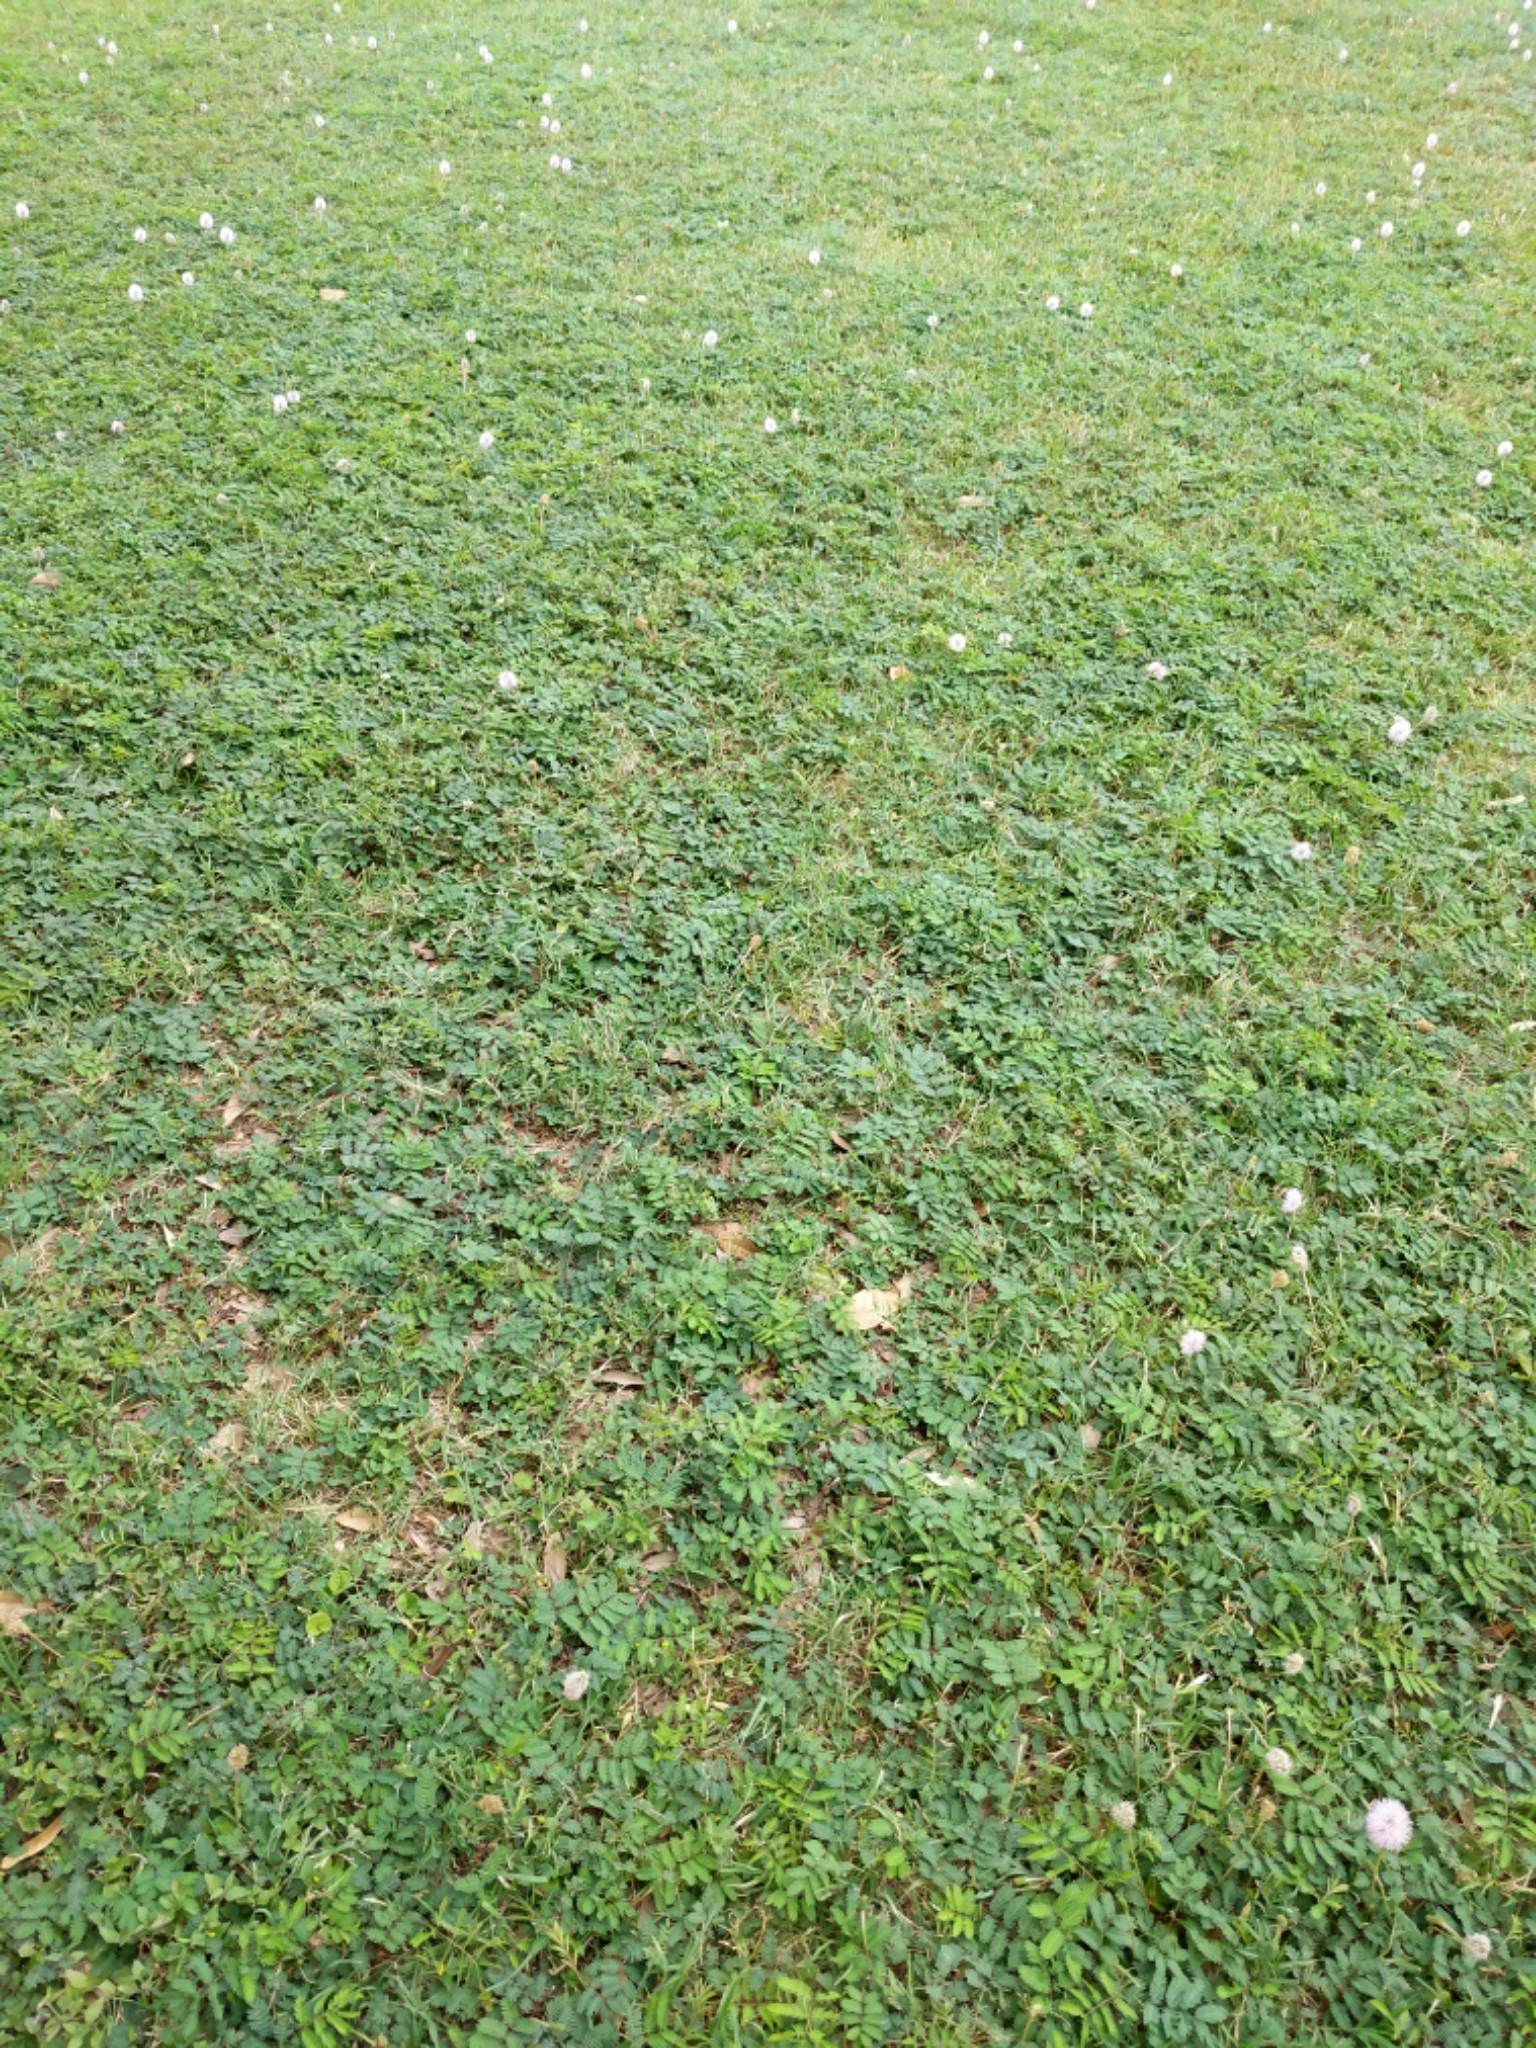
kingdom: Plantae
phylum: Tracheophyta
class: Magnoliopsida
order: Fabales
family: Fabaceae
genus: Mimosa
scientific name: Mimosa strigillosa
